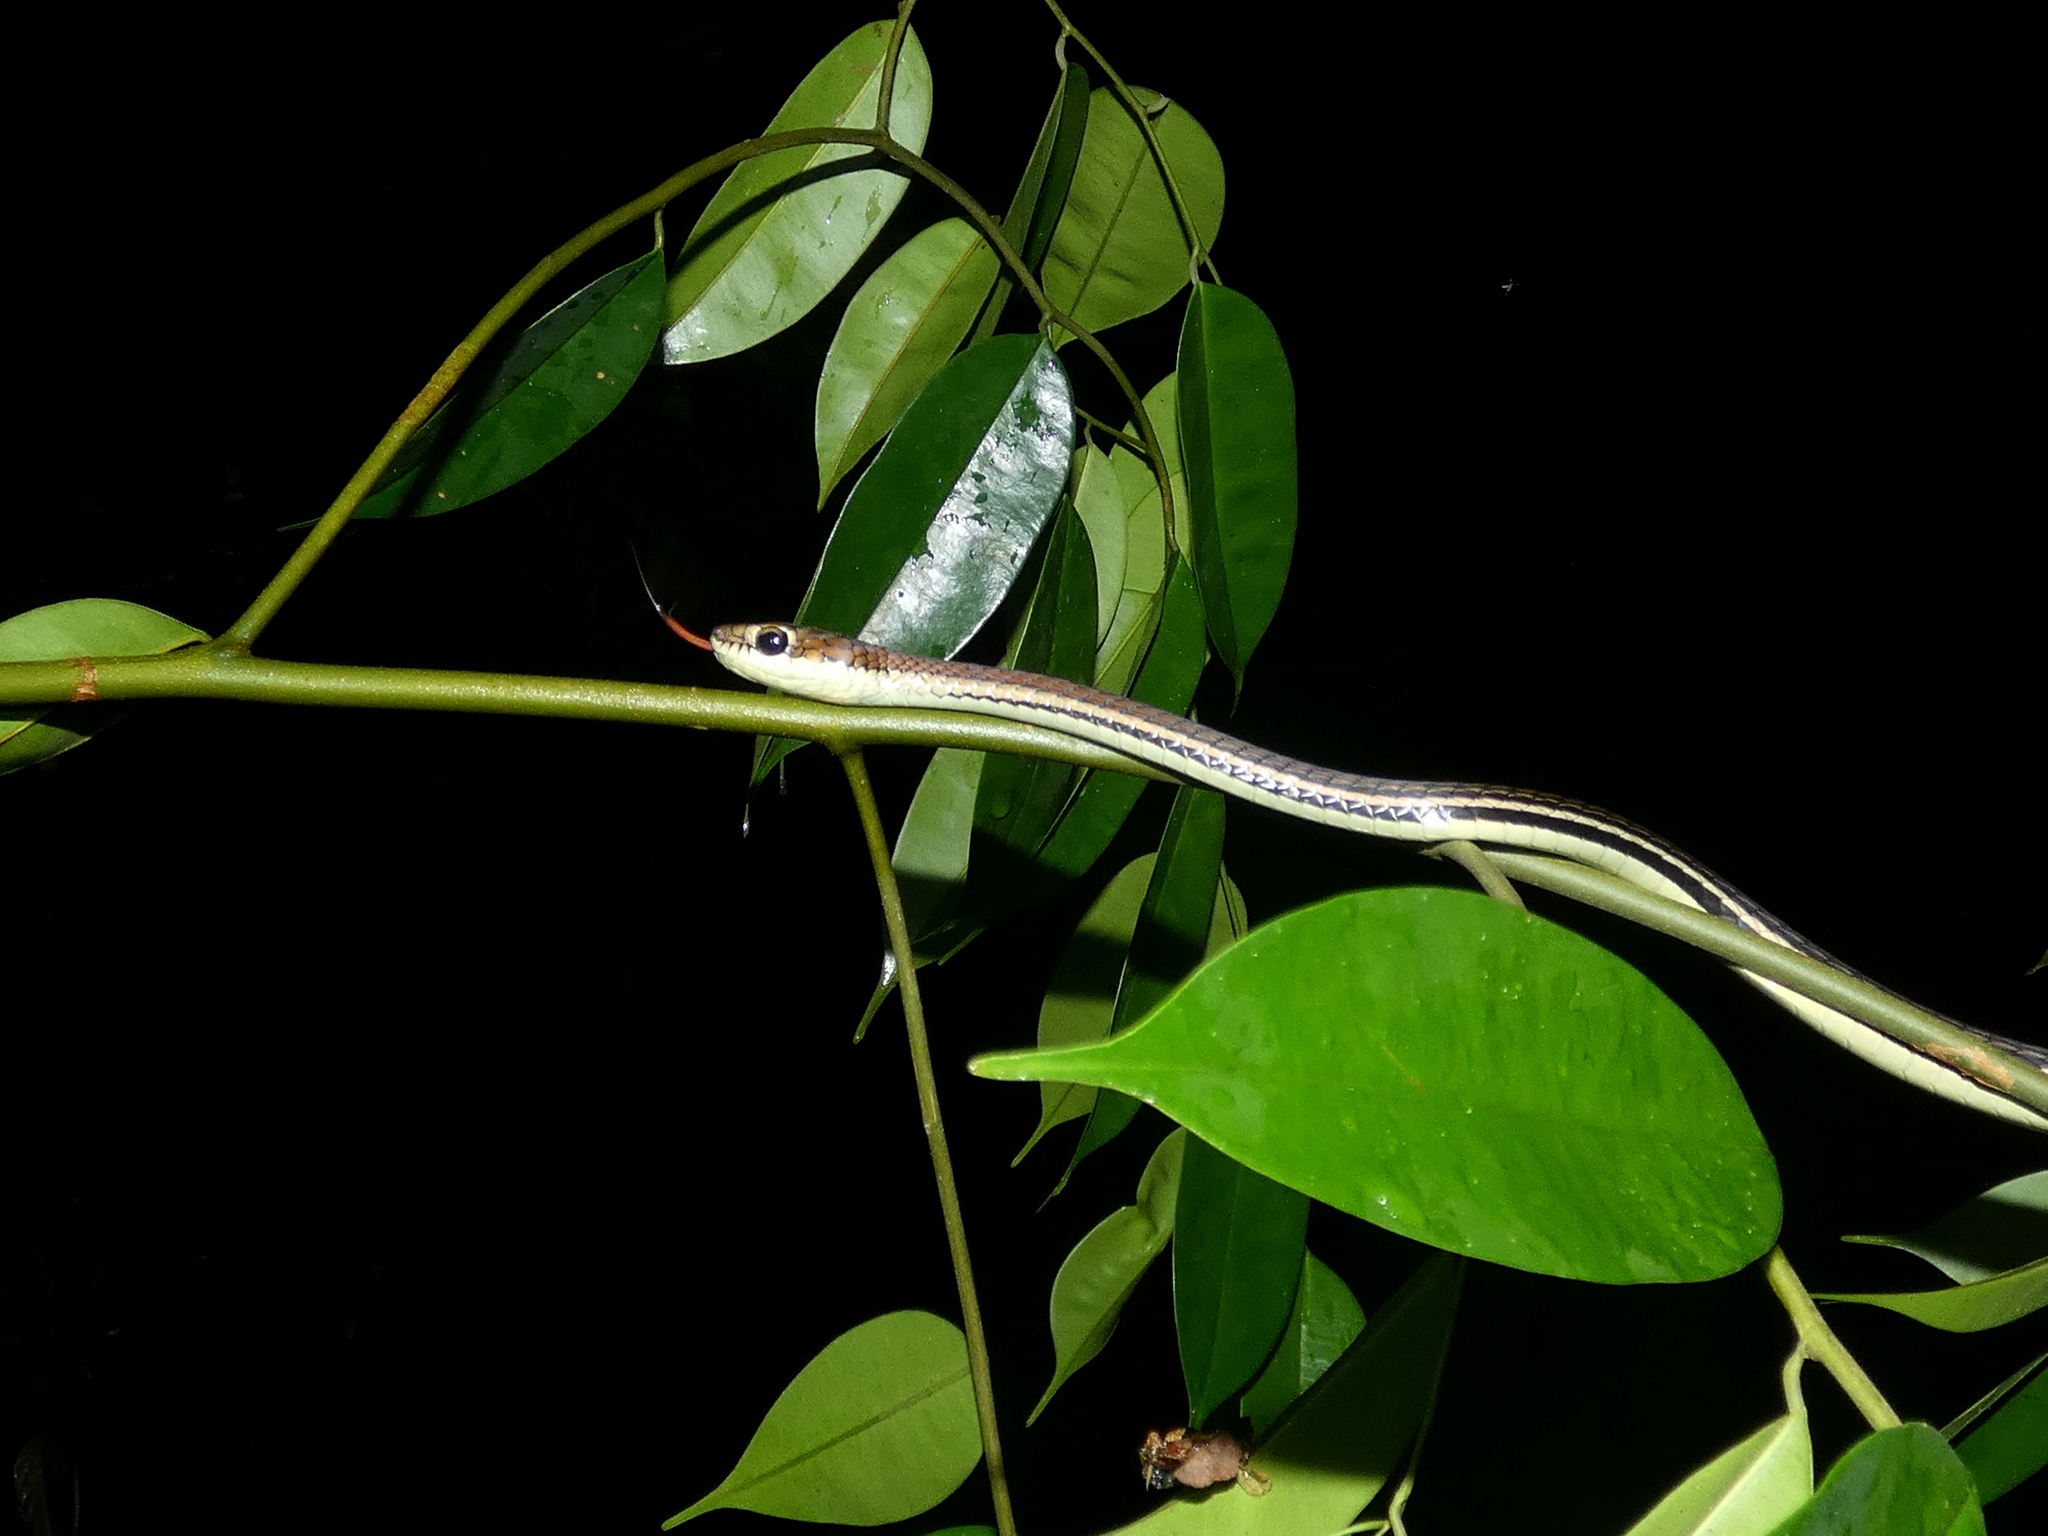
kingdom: Animalia
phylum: Chordata
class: Squamata
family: Colubridae
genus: Dendrelaphis
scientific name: Dendrelaphis caudolineatus
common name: Striped bronzeback
